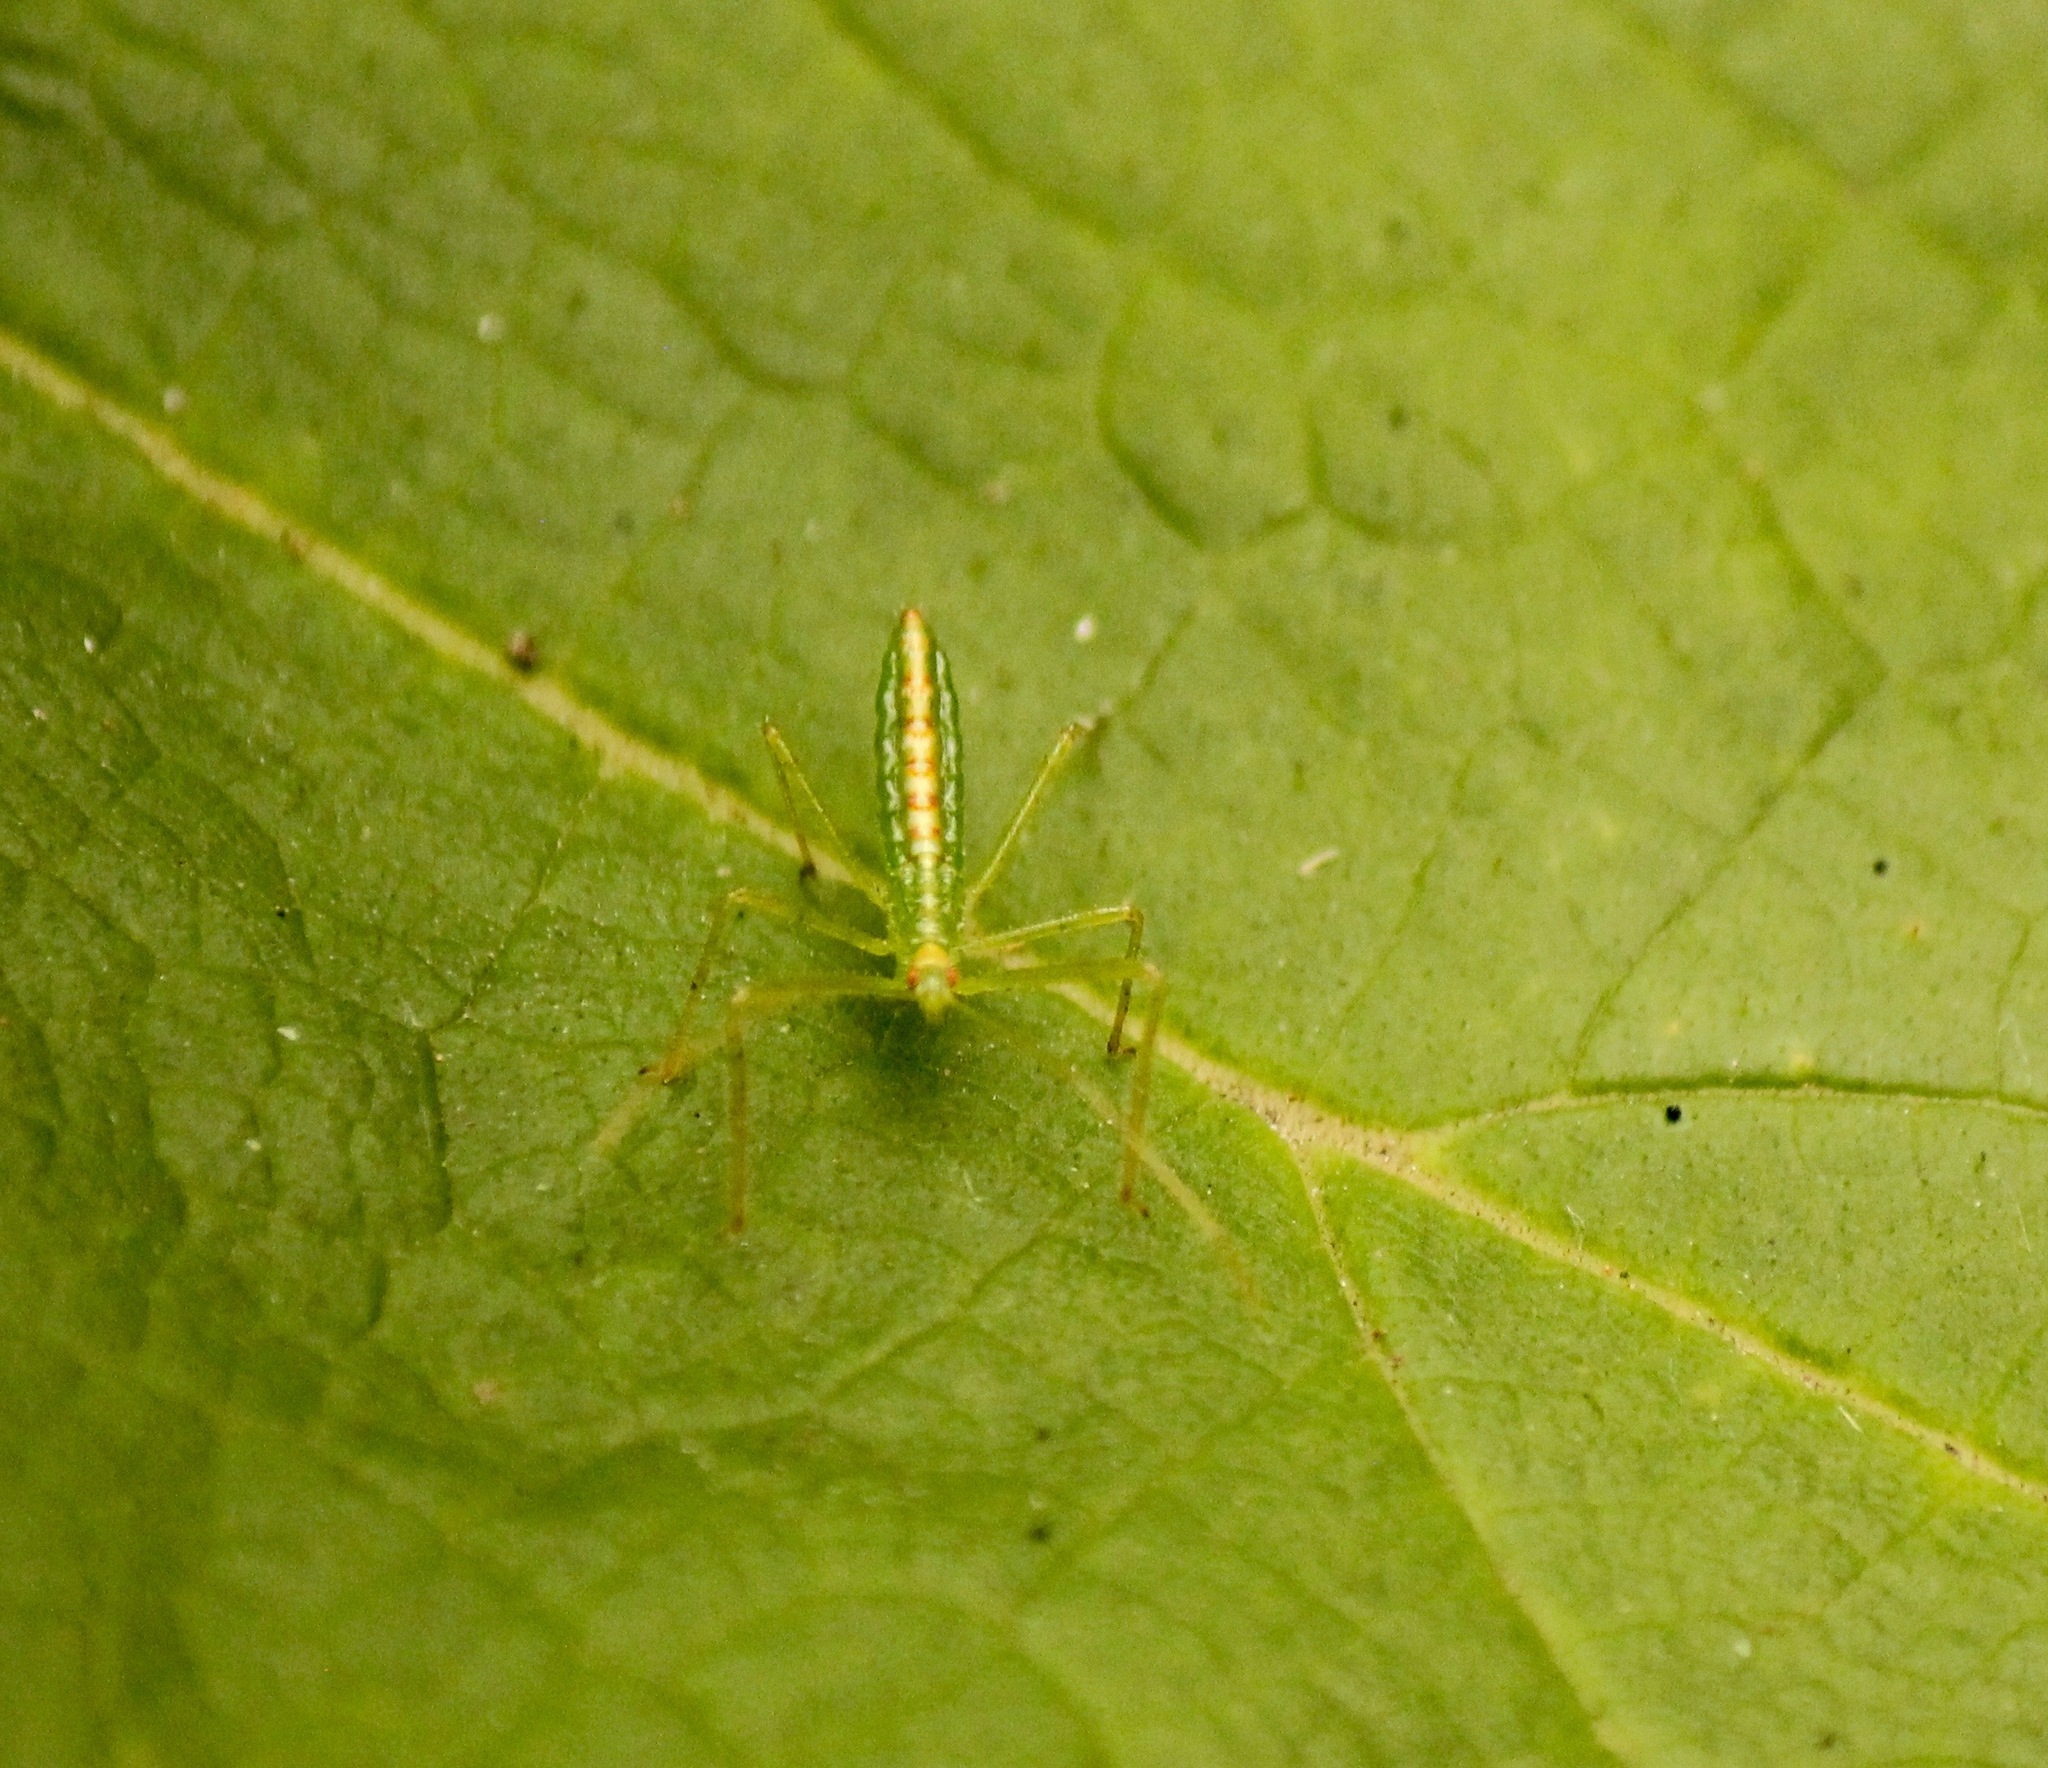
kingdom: Animalia
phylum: Arthropoda
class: Insecta
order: Hemiptera
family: Reduviidae
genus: Zelus
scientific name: Zelus luridus
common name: Pale green assassin bug
